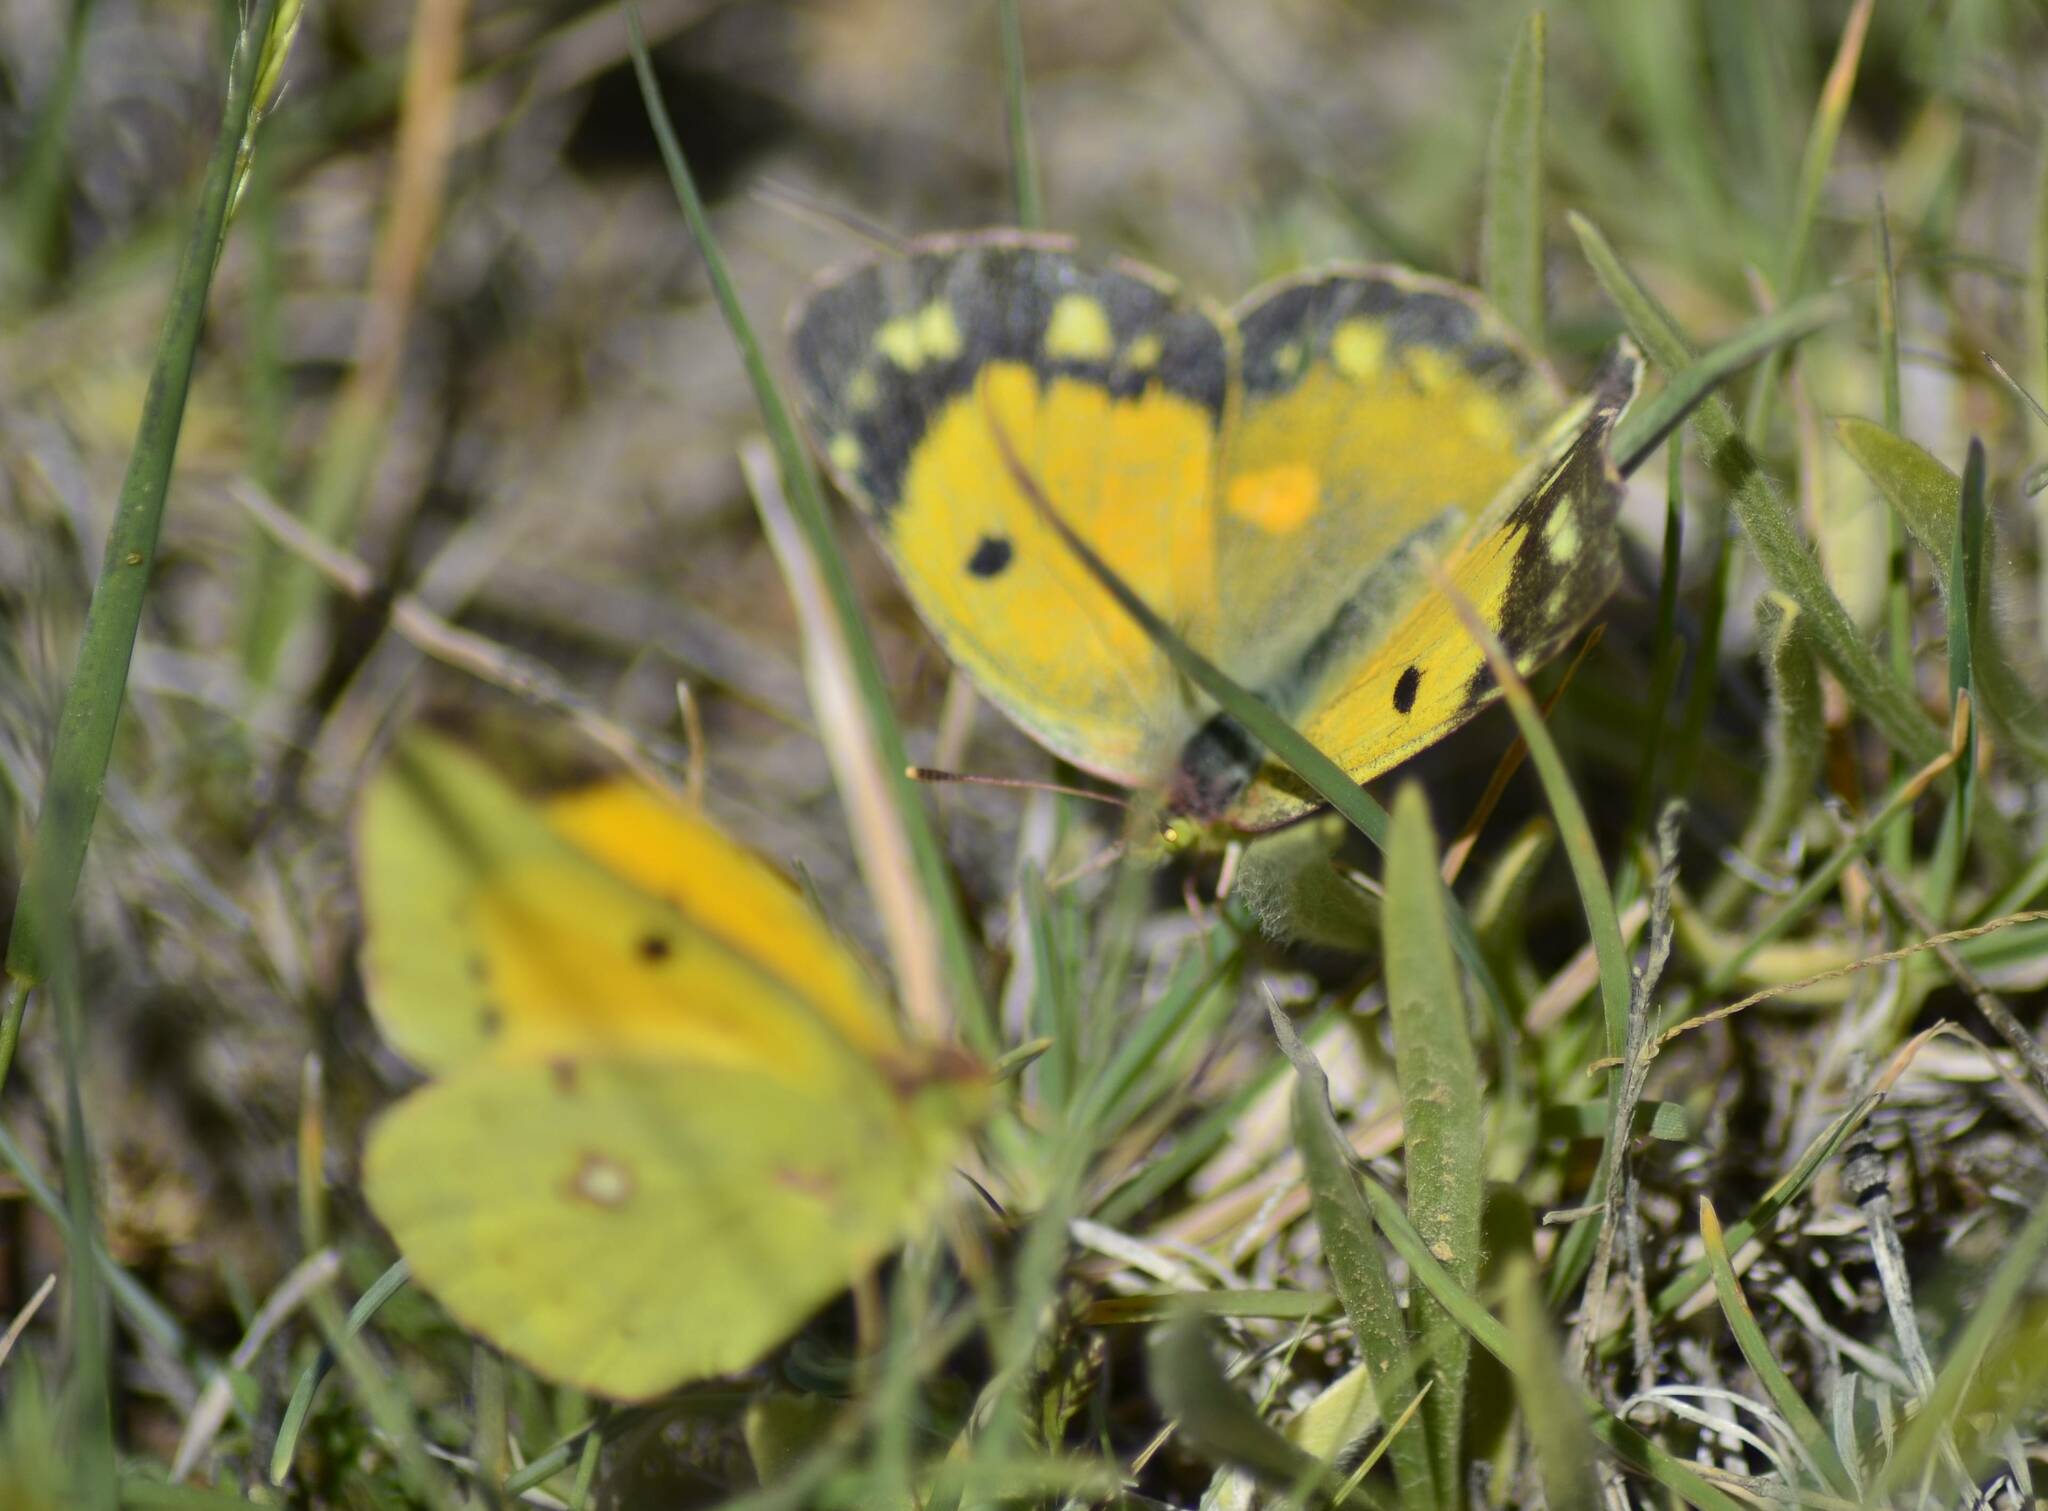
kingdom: Animalia
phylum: Arthropoda
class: Insecta
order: Lepidoptera
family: Pieridae
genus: Colias
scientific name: Colias croceus
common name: Clouded yellow
